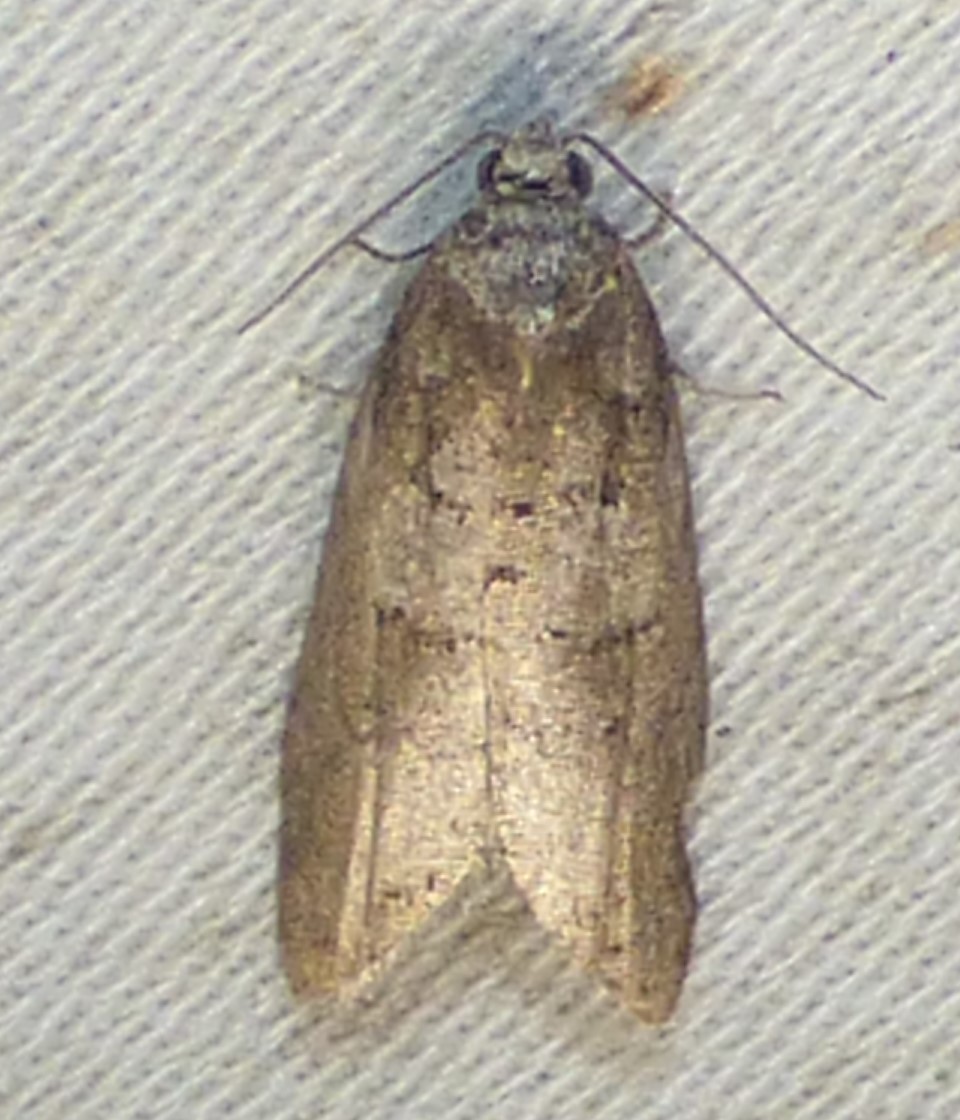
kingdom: Animalia
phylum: Arthropoda
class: Insecta
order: Lepidoptera
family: Tortricidae
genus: Decodes
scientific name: Decodes basiplagana
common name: Gray-marked tortricid
